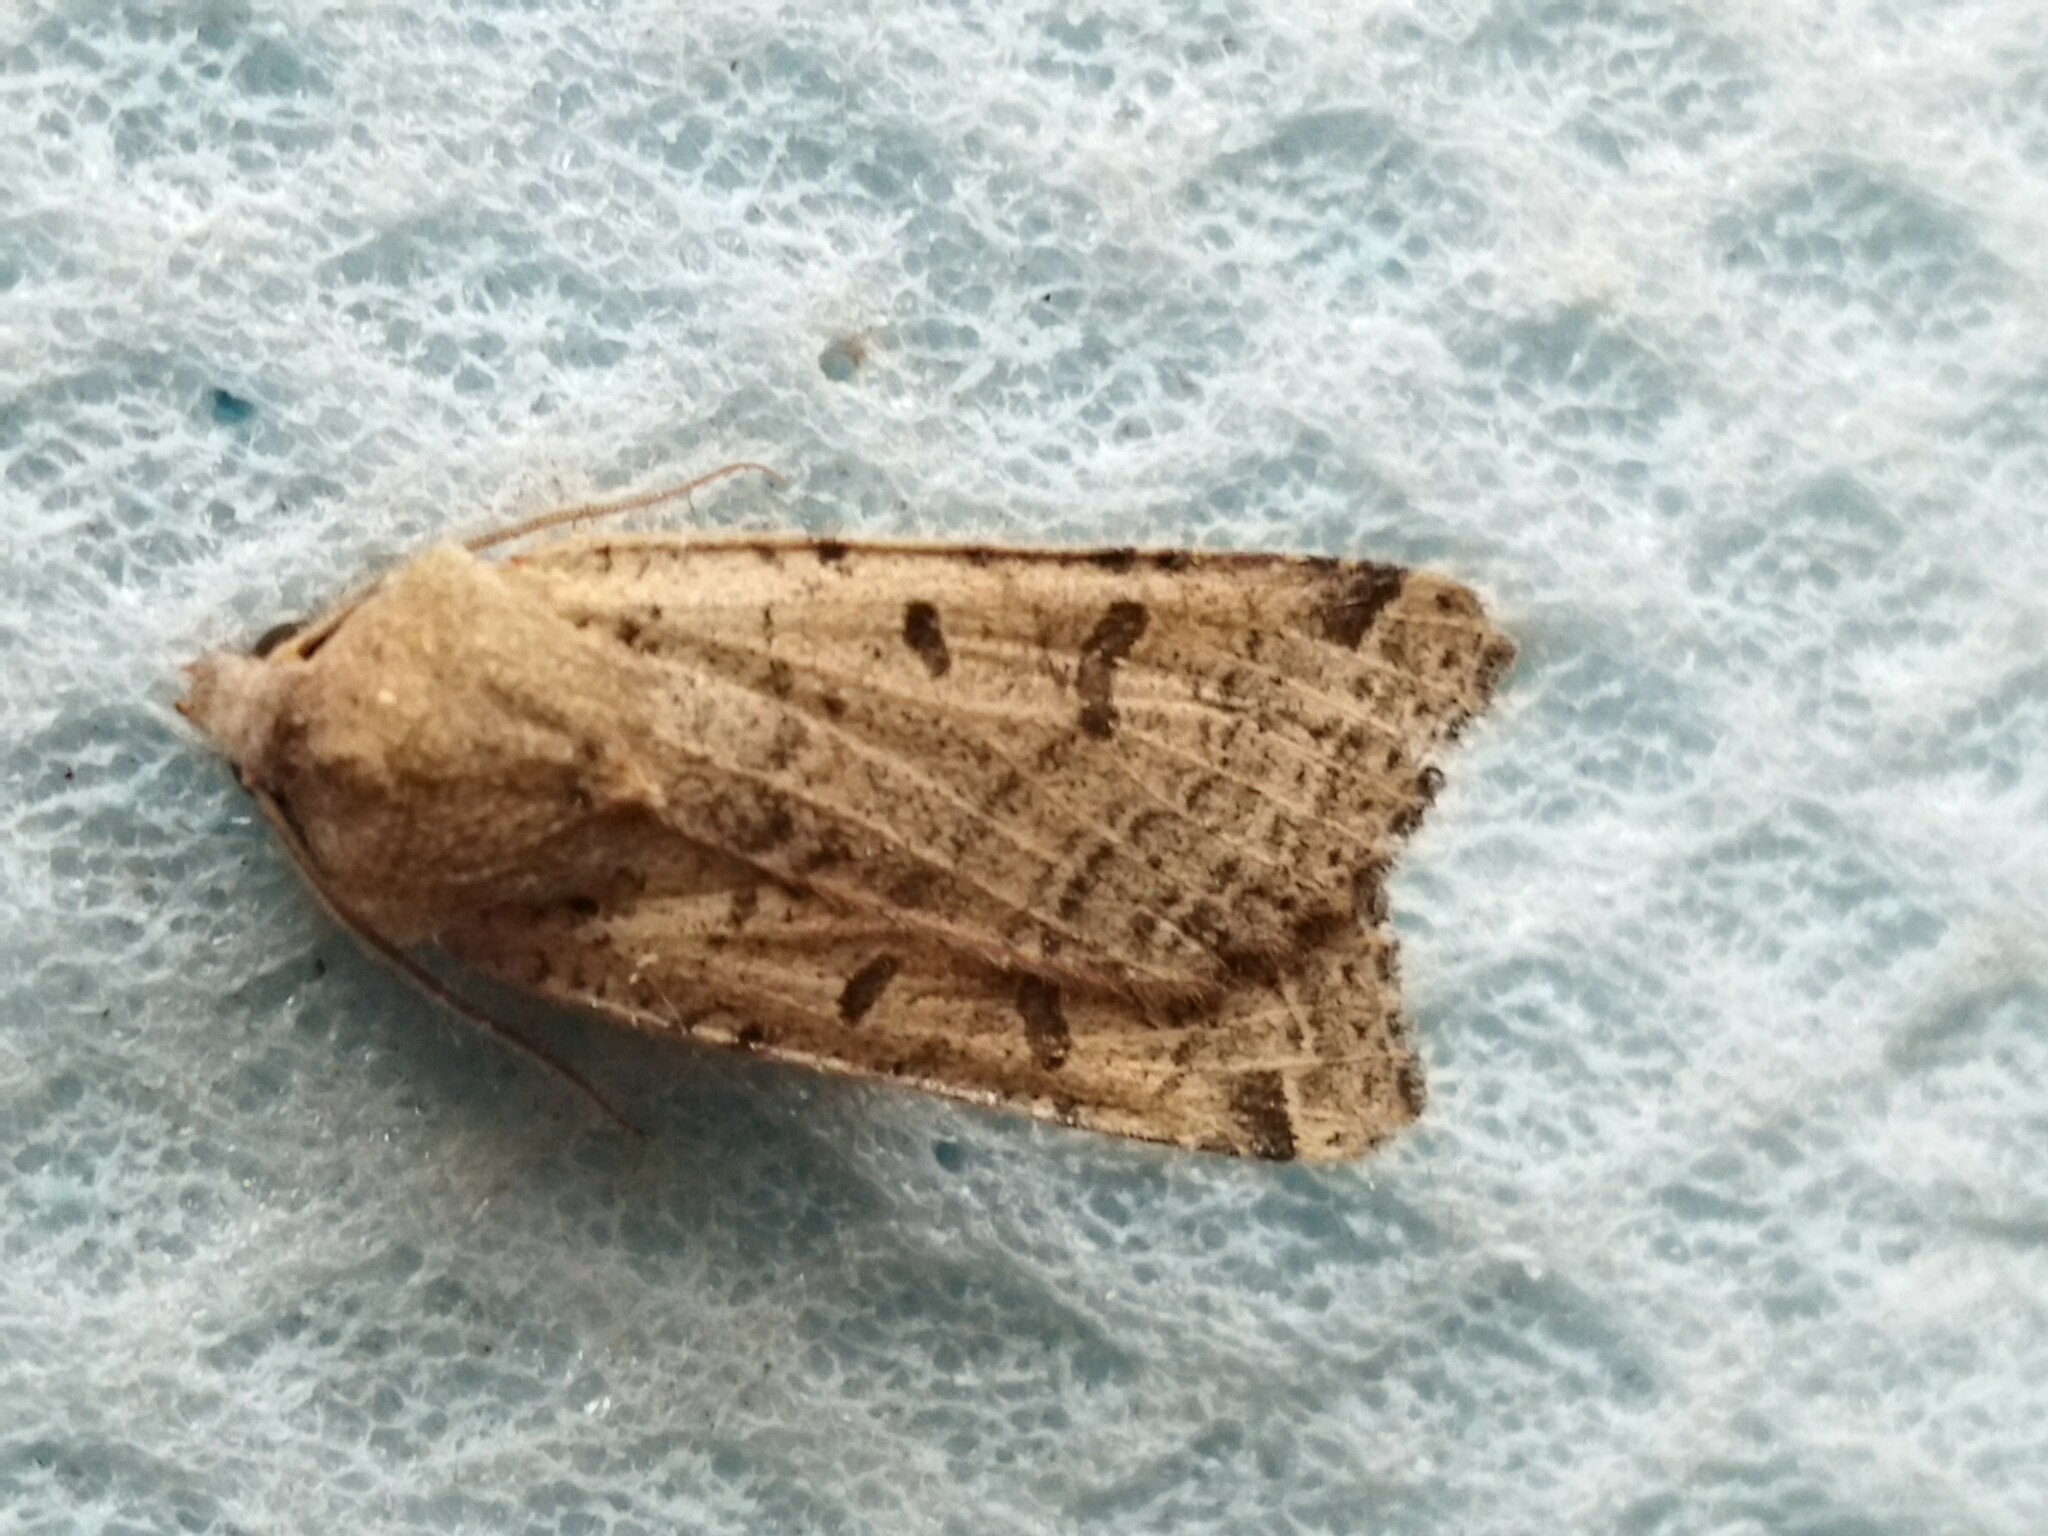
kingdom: Animalia
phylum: Arthropoda
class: Insecta
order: Lepidoptera
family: Noctuidae
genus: Agrochola
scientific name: Agrochola lychnidis
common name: Beaded chestnut
